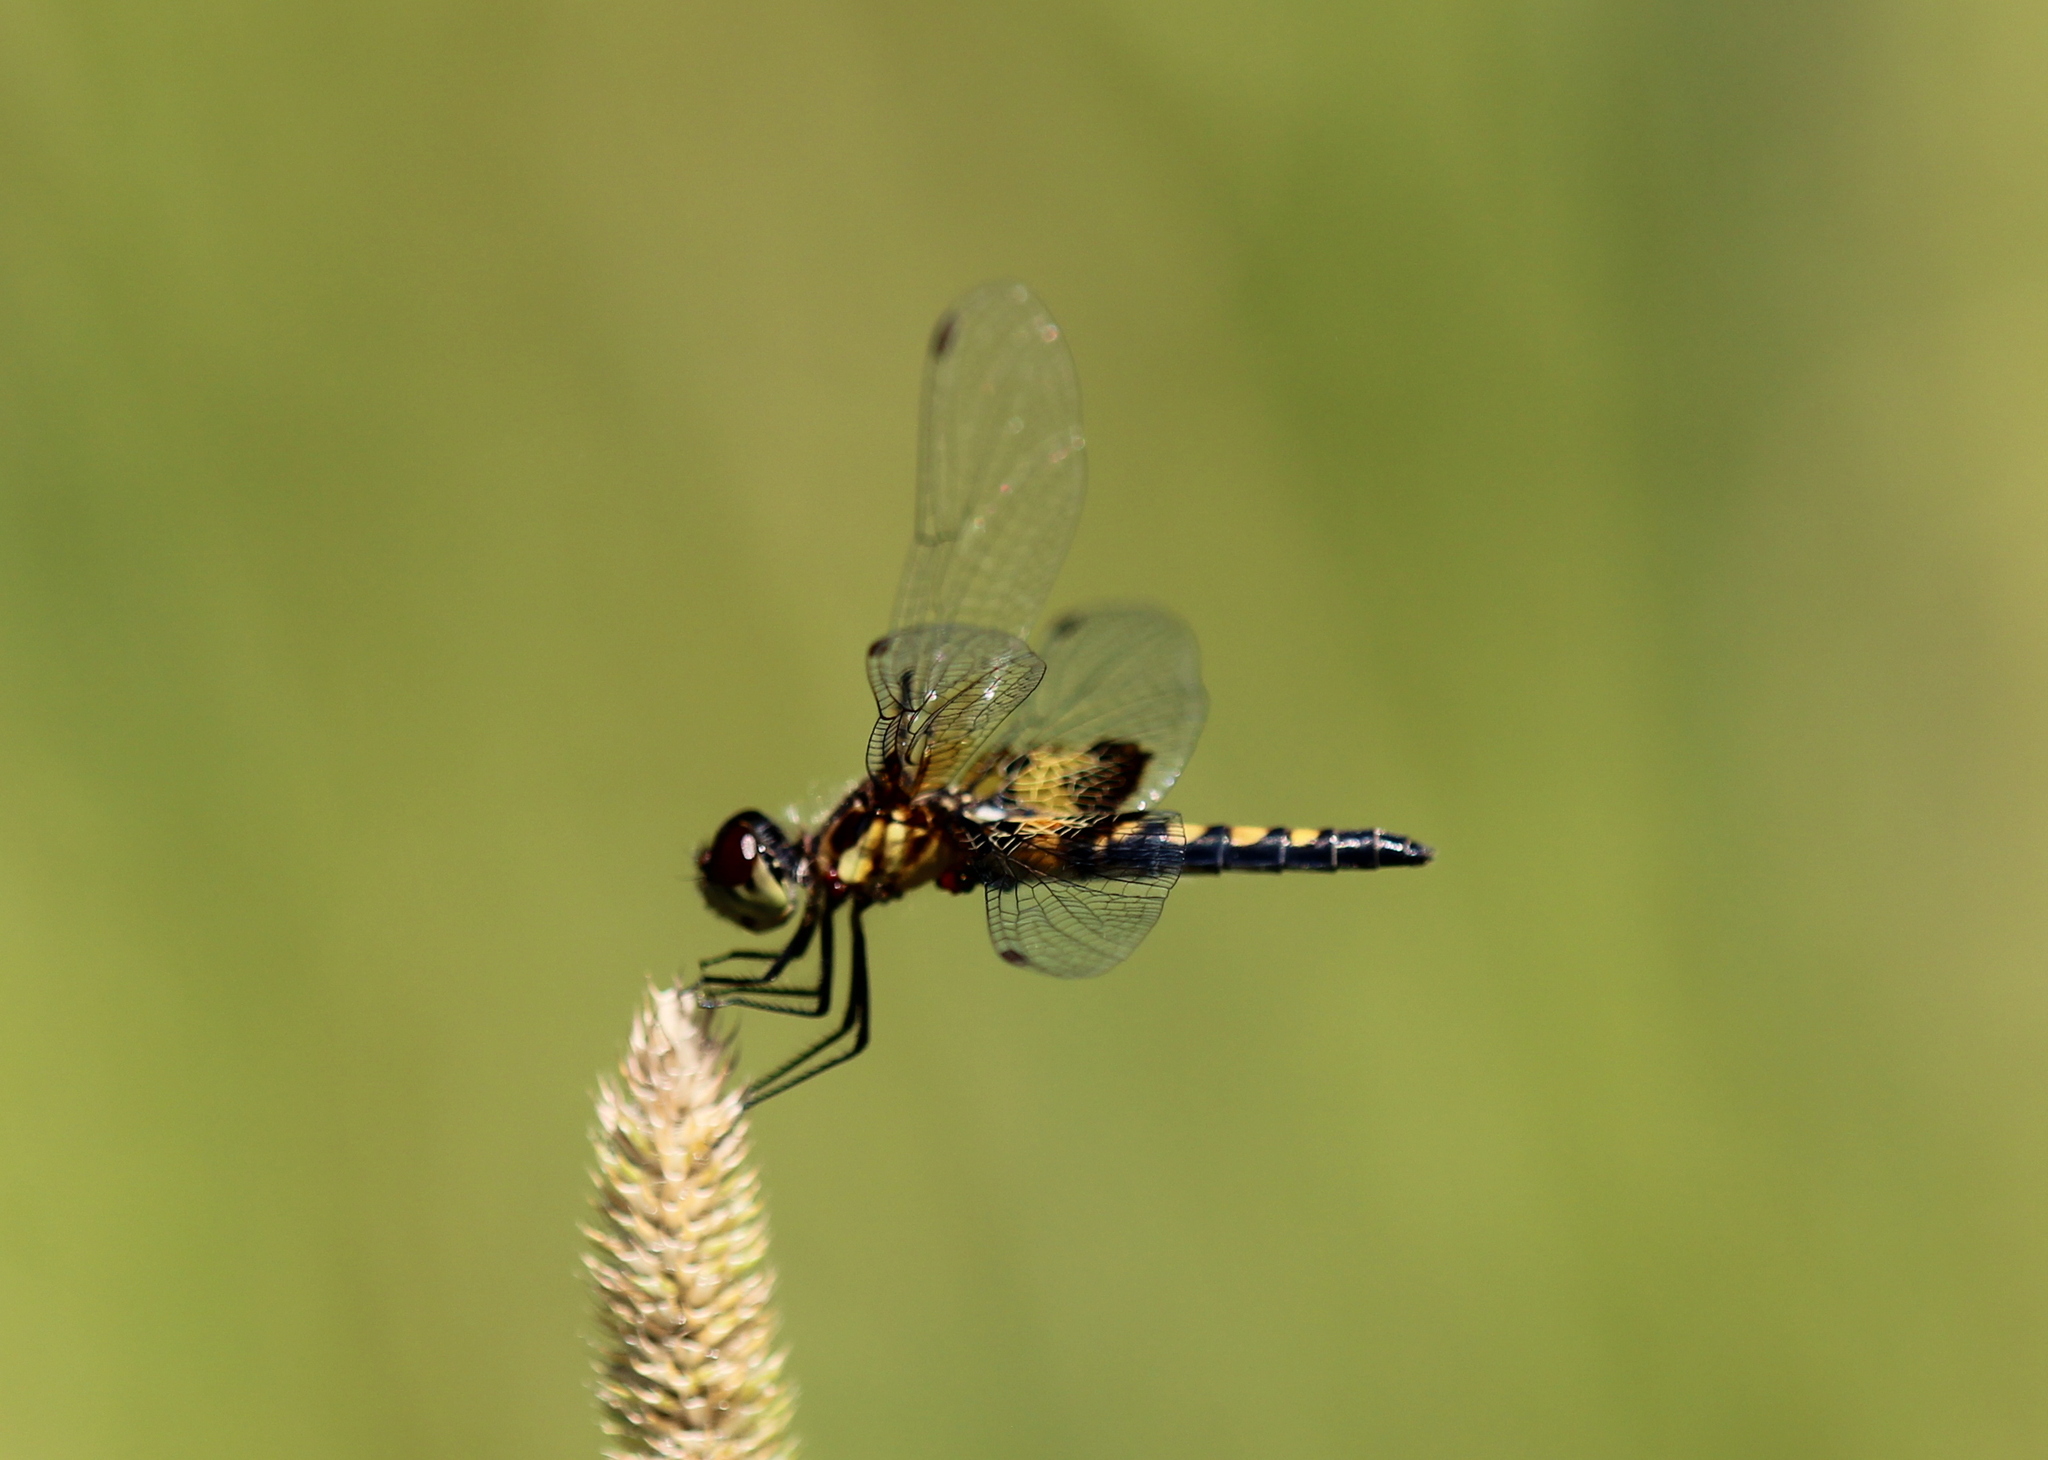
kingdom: Animalia
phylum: Arthropoda
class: Insecta
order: Odonata
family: Libellulidae
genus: Celithemis
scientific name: Celithemis martha
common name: Martha's pennant
